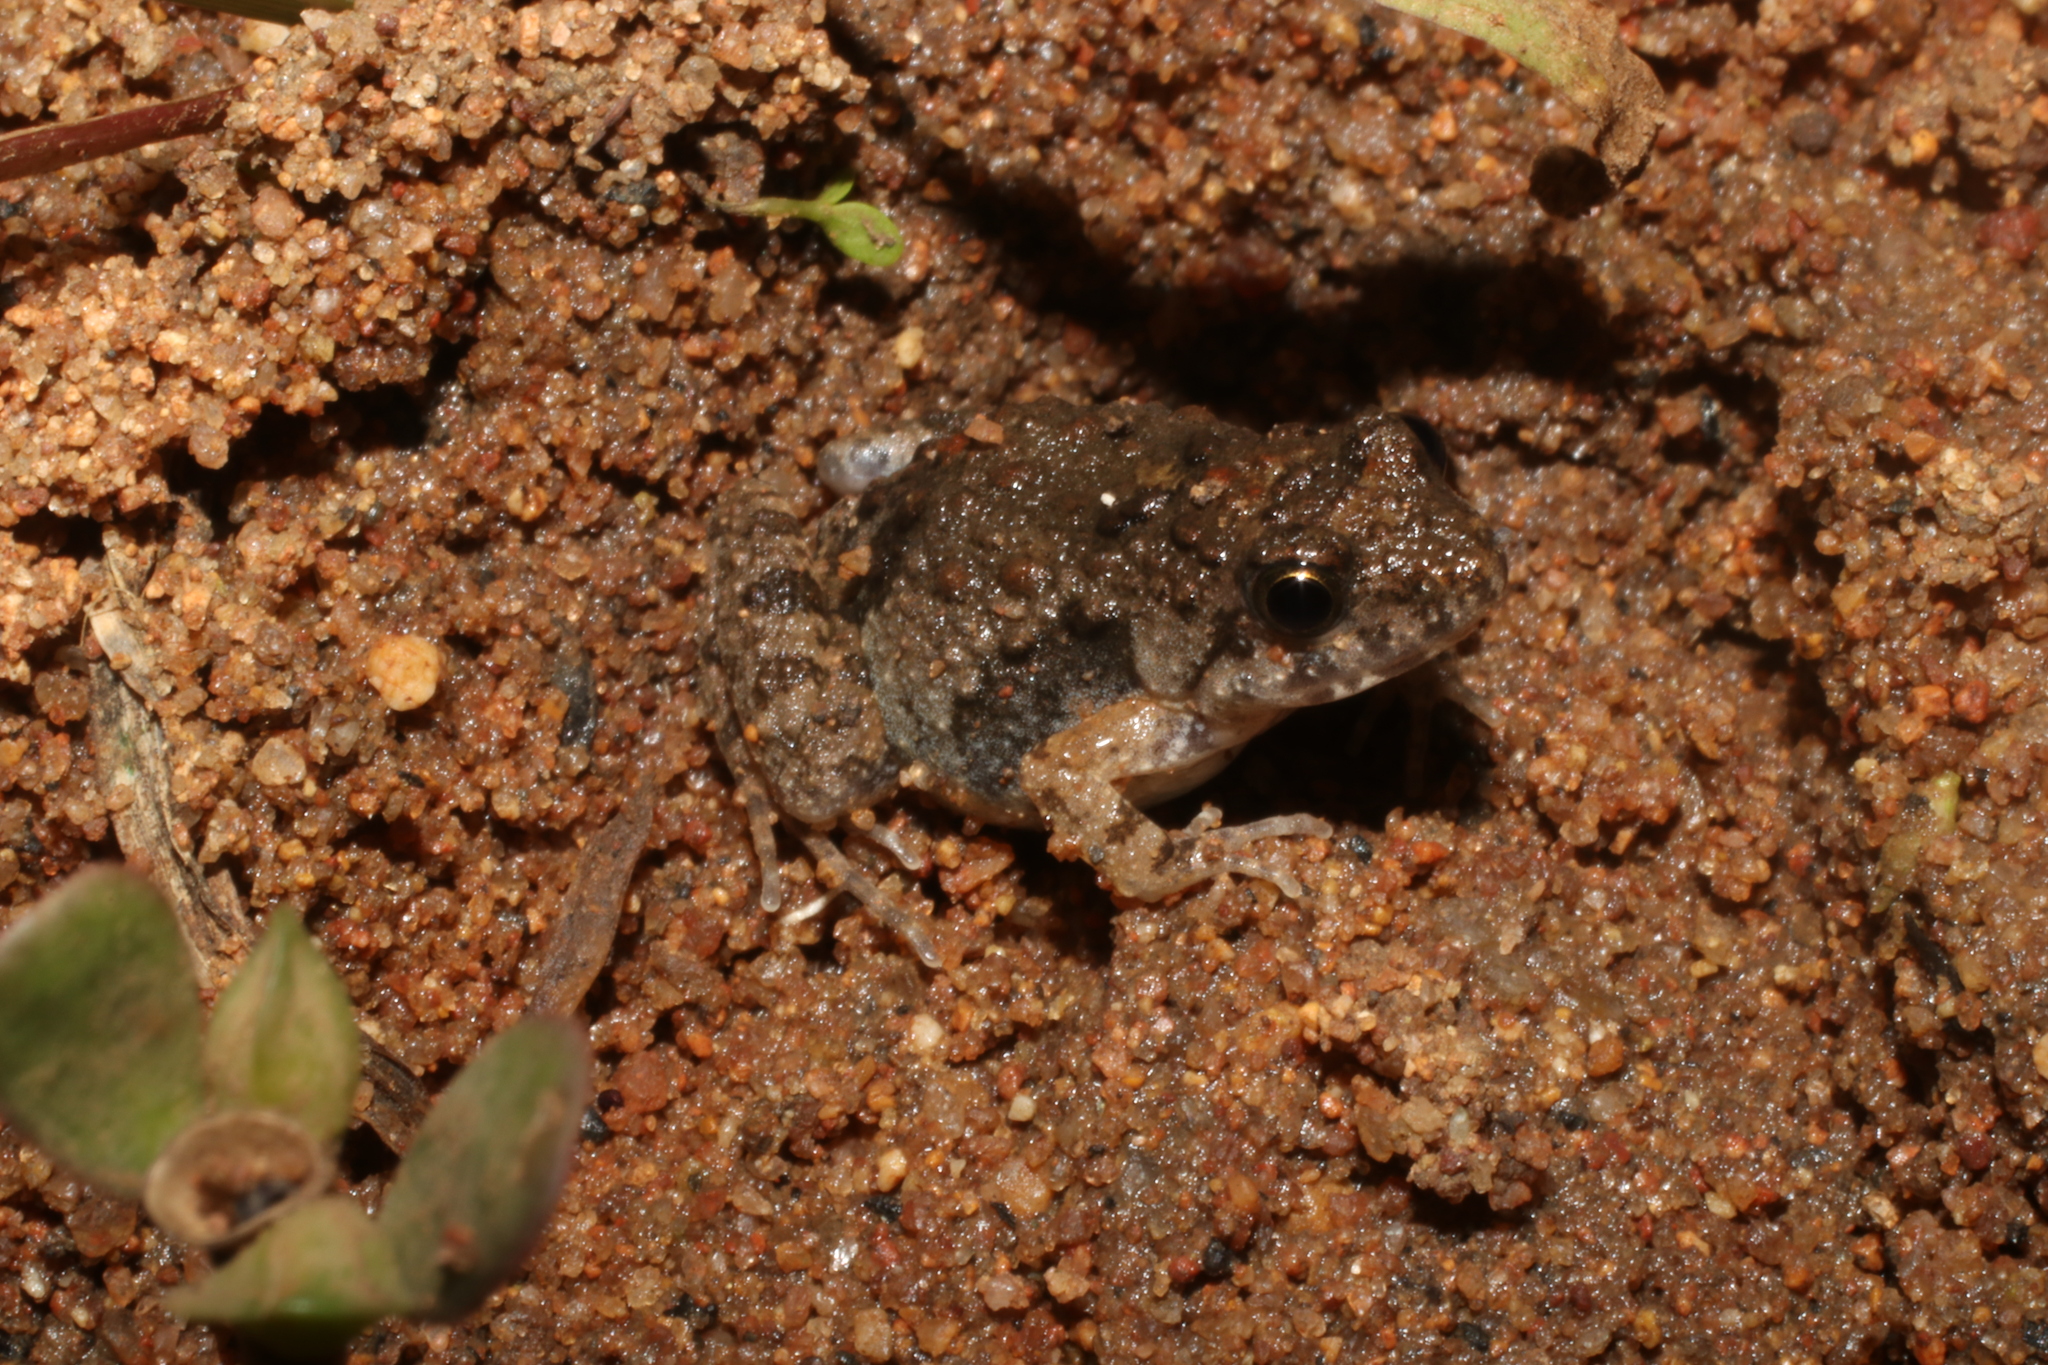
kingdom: Animalia
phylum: Chordata
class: Amphibia
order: Anura
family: Phrynobatrachidae
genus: Phrynobatrachus
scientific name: Phrynobatrachus mababiensis
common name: Dwarf puddle frog
